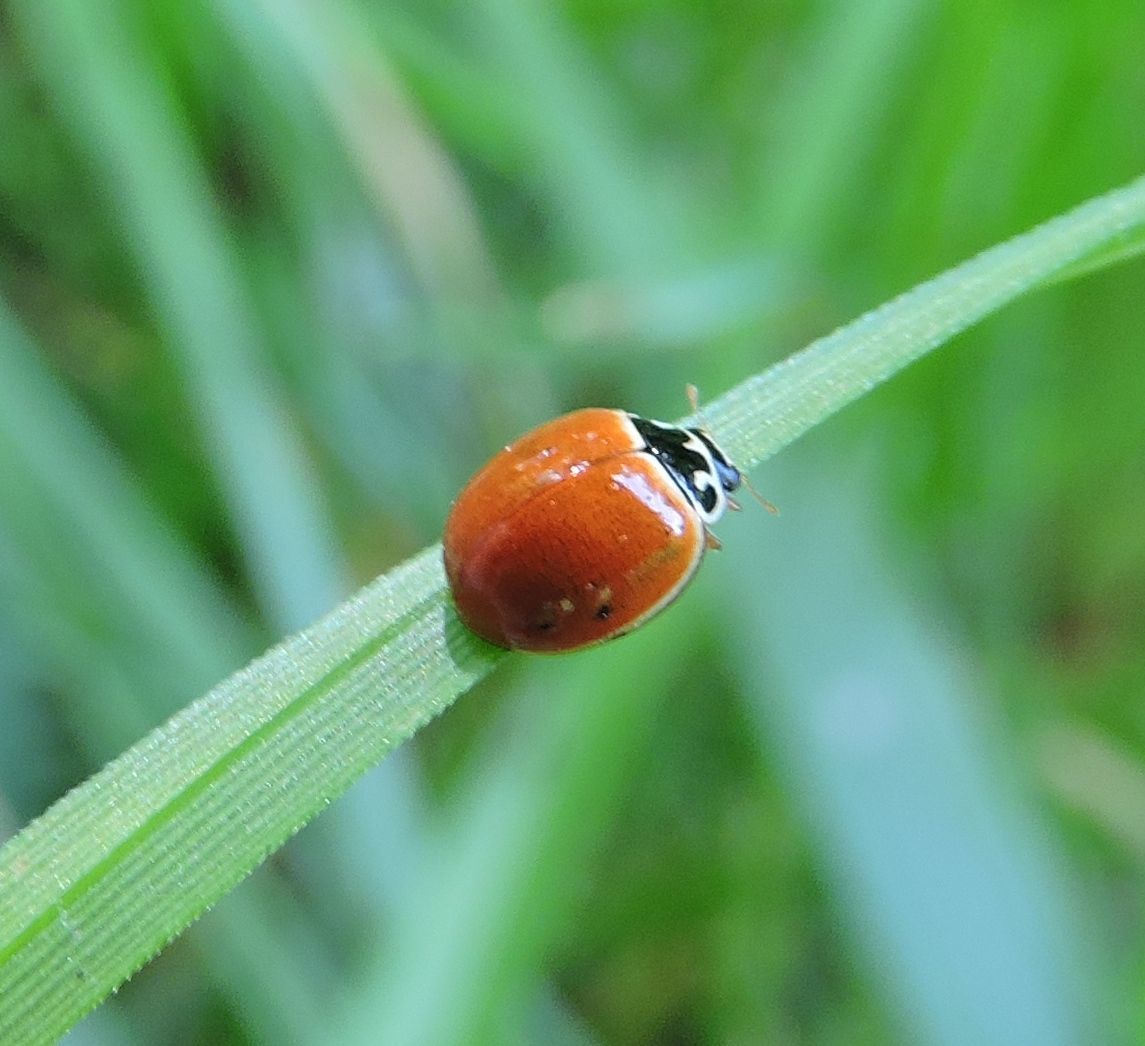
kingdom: Animalia
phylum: Arthropoda
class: Insecta
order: Coleoptera
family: Coccinellidae
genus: Cycloneda
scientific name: Cycloneda munda
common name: Polished lady beetle
